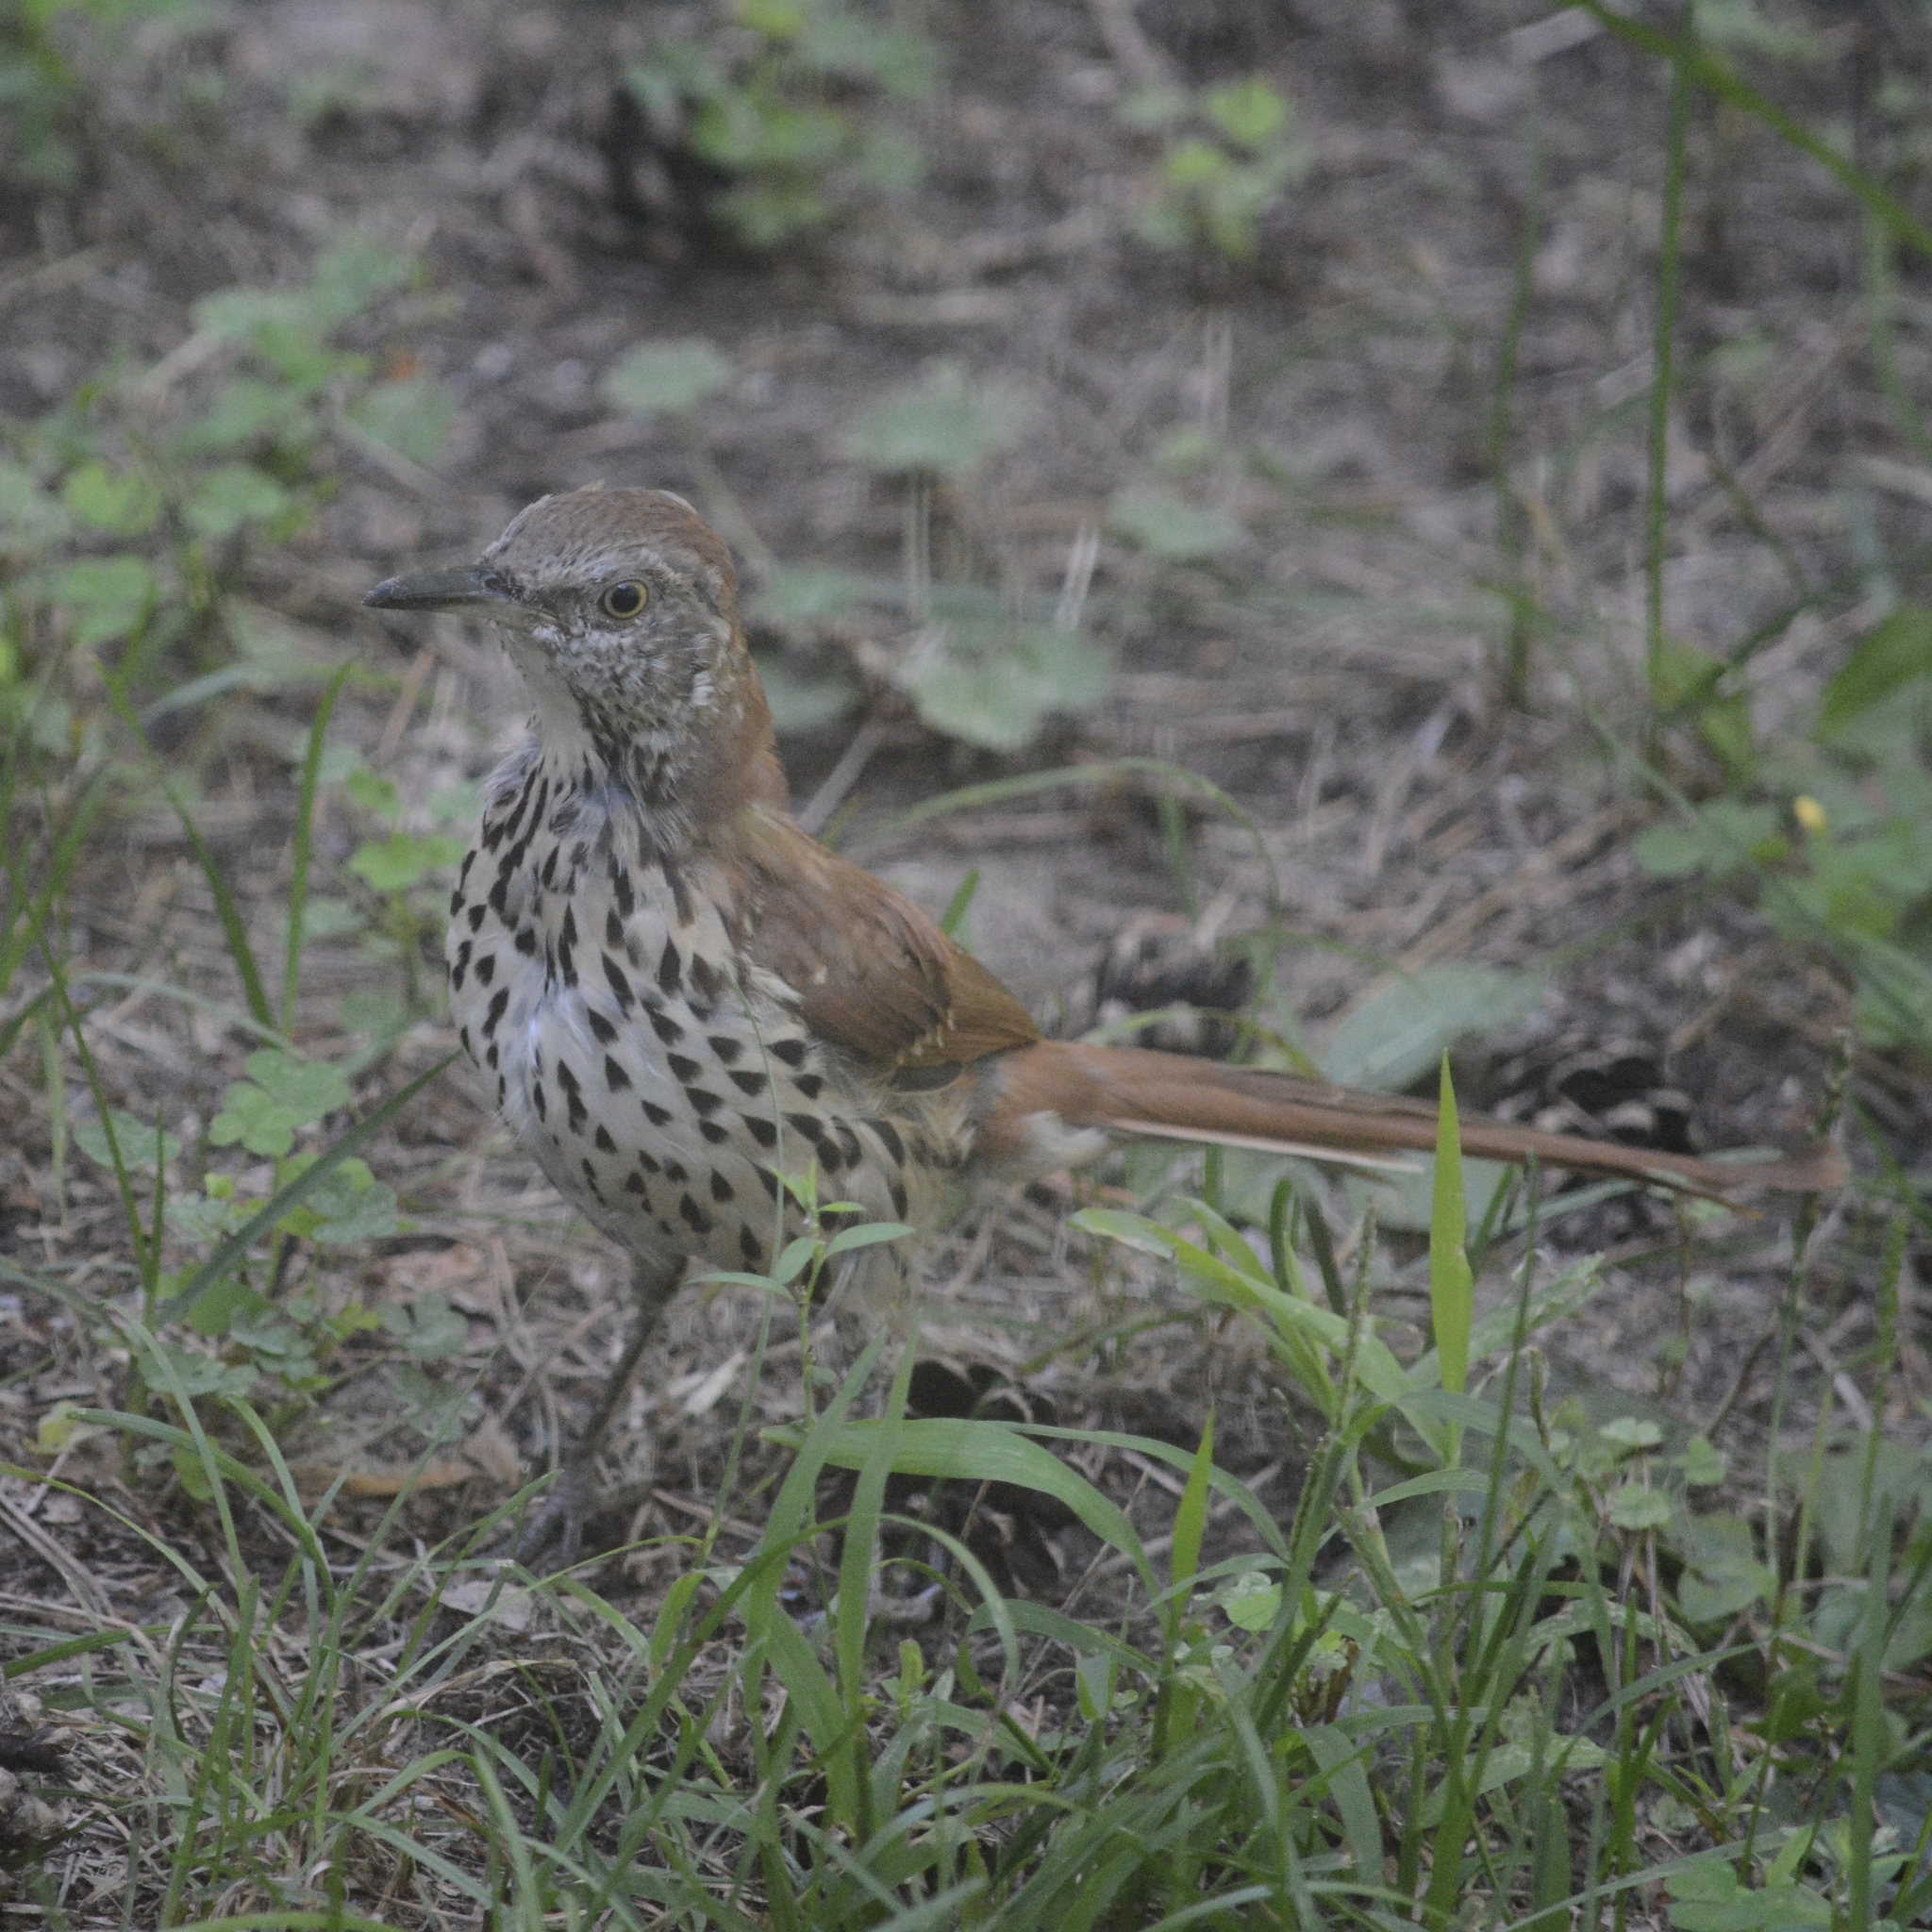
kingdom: Animalia
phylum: Chordata
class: Aves
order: Passeriformes
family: Mimidae
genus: Toxostoma
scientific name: Toxostoma rufum
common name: Brown thrasher
